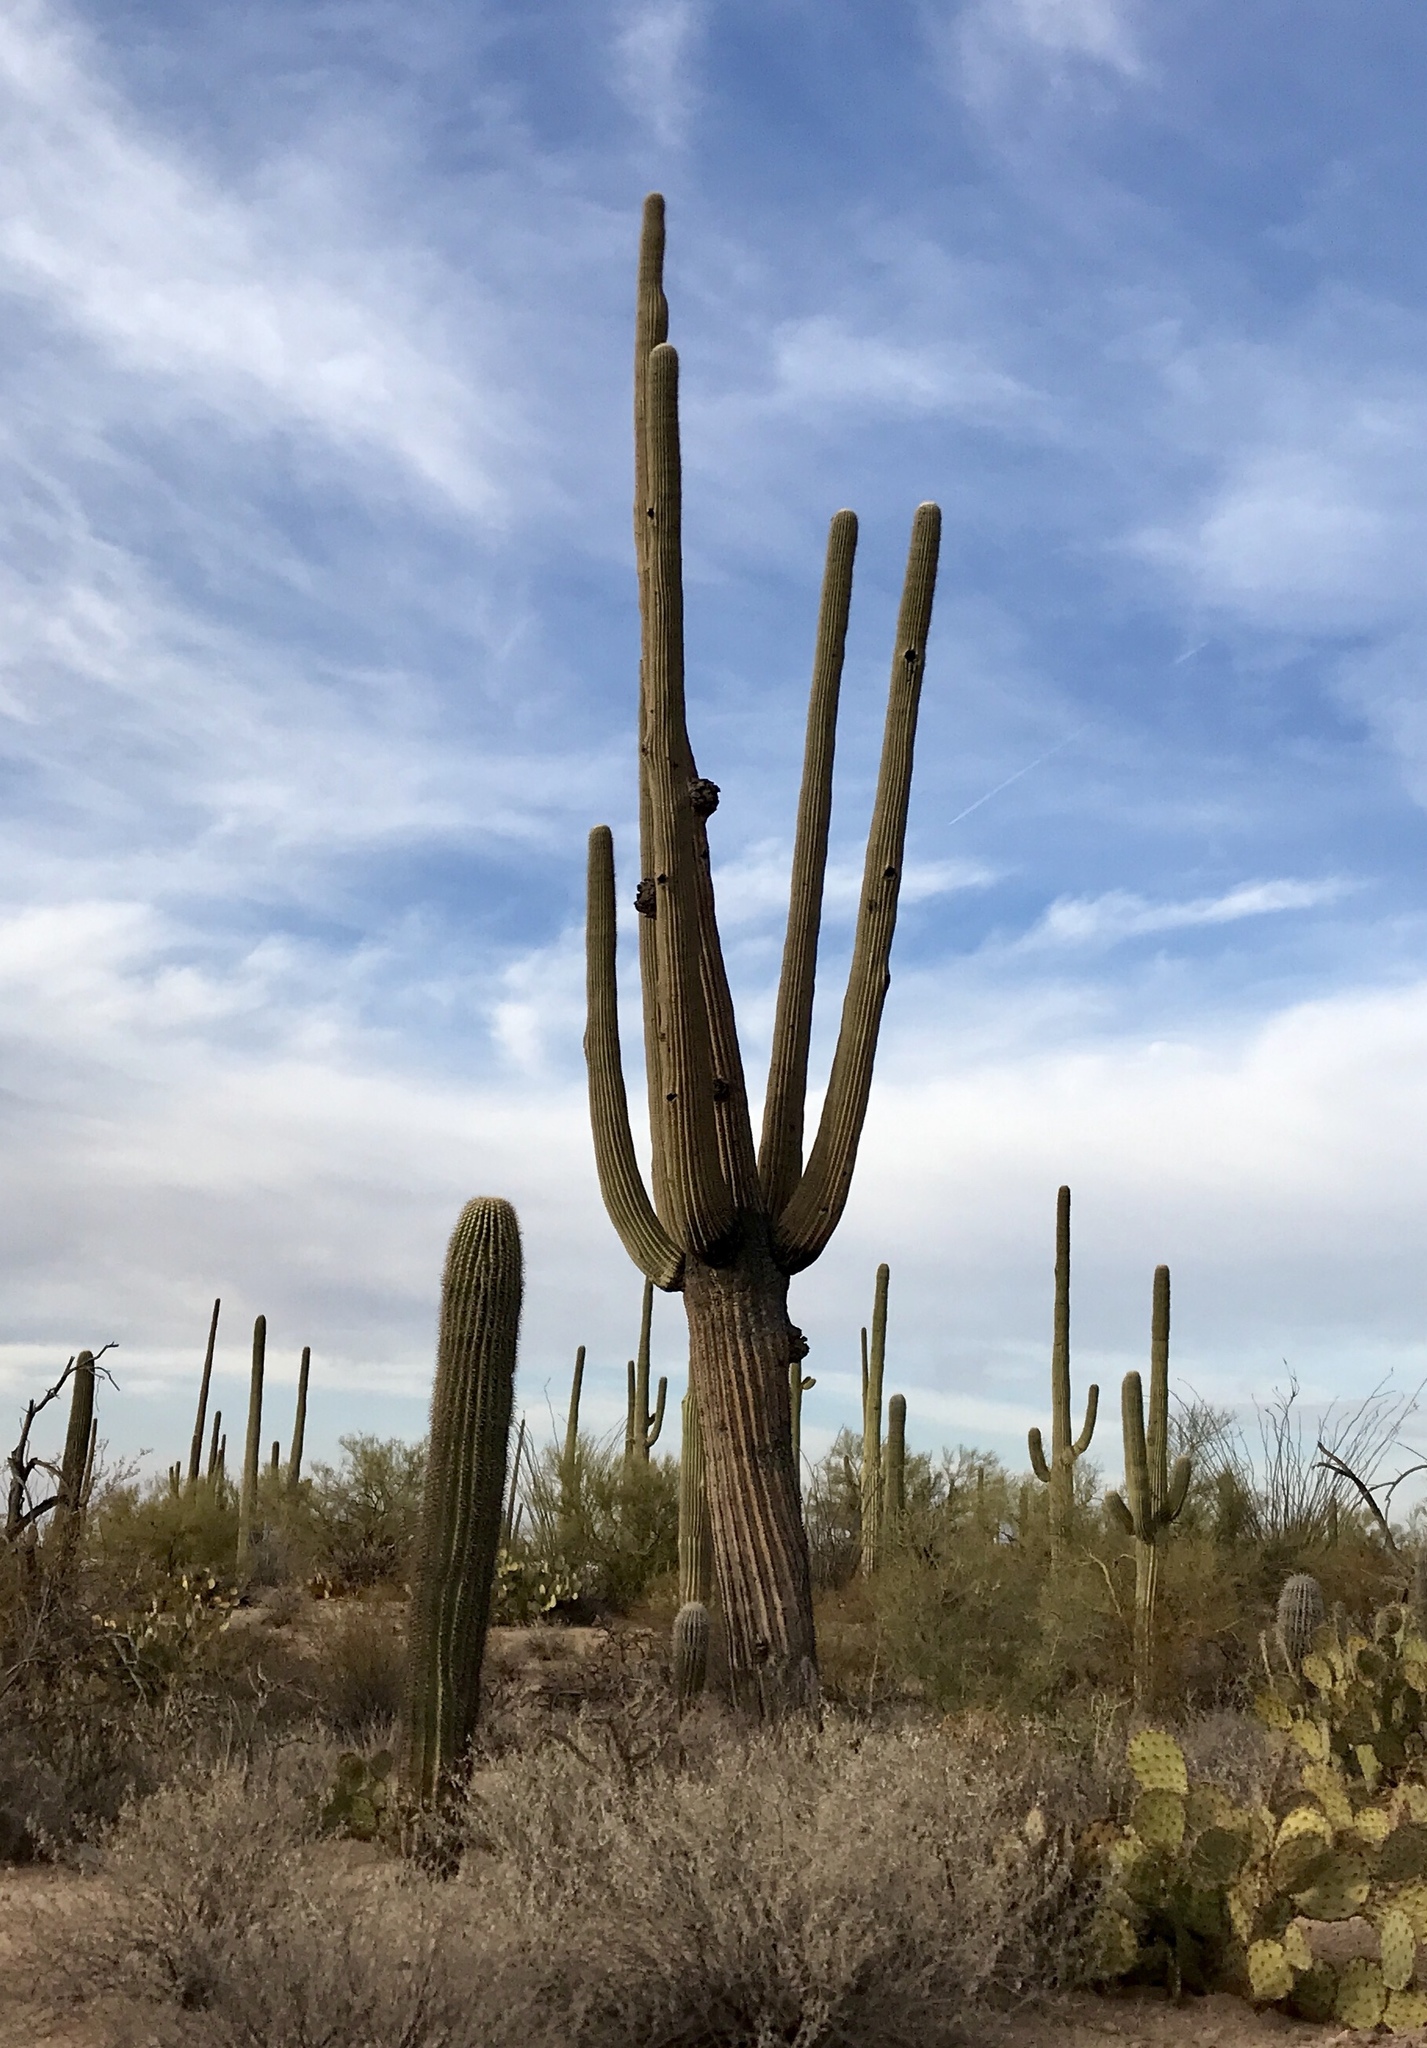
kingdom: Plantae
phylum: Tracheophyta
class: Magnoliopsida
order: Caryophyllales
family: Cactaceae
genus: Carnegiea
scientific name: Carnegiea gigantea
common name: Saguaro
